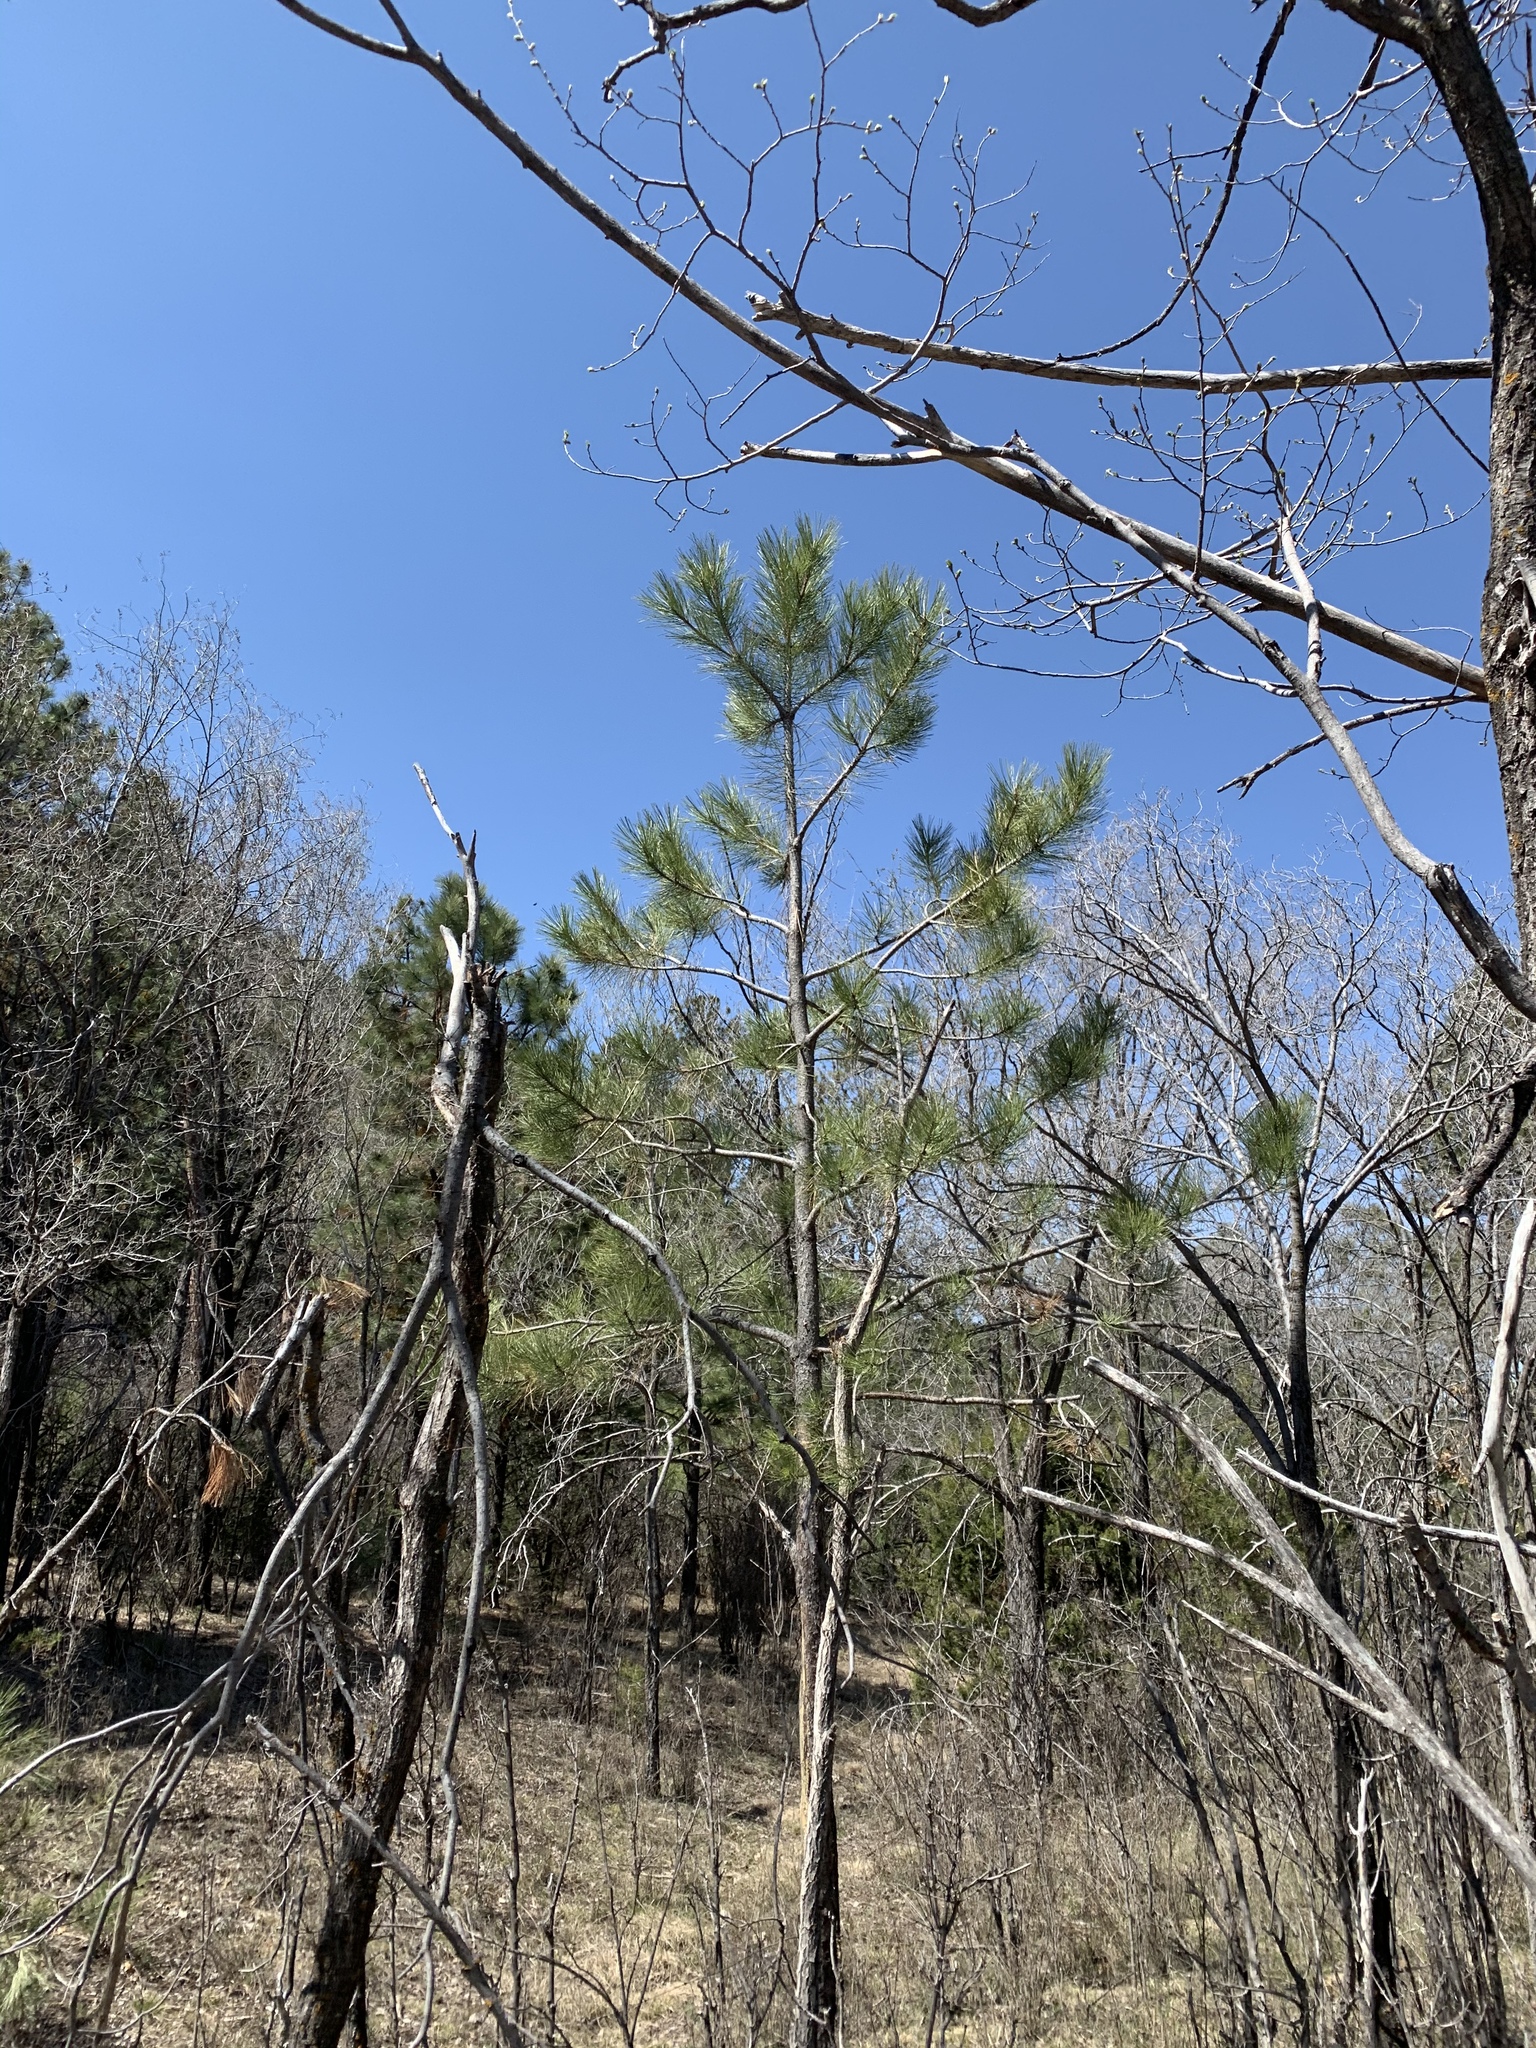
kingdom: Plantae
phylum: Tracheophyta
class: Pinopsida
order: Pinales
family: Pinaceae
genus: Pinus
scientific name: Pinus ponderosa
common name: Western yellow-pine
